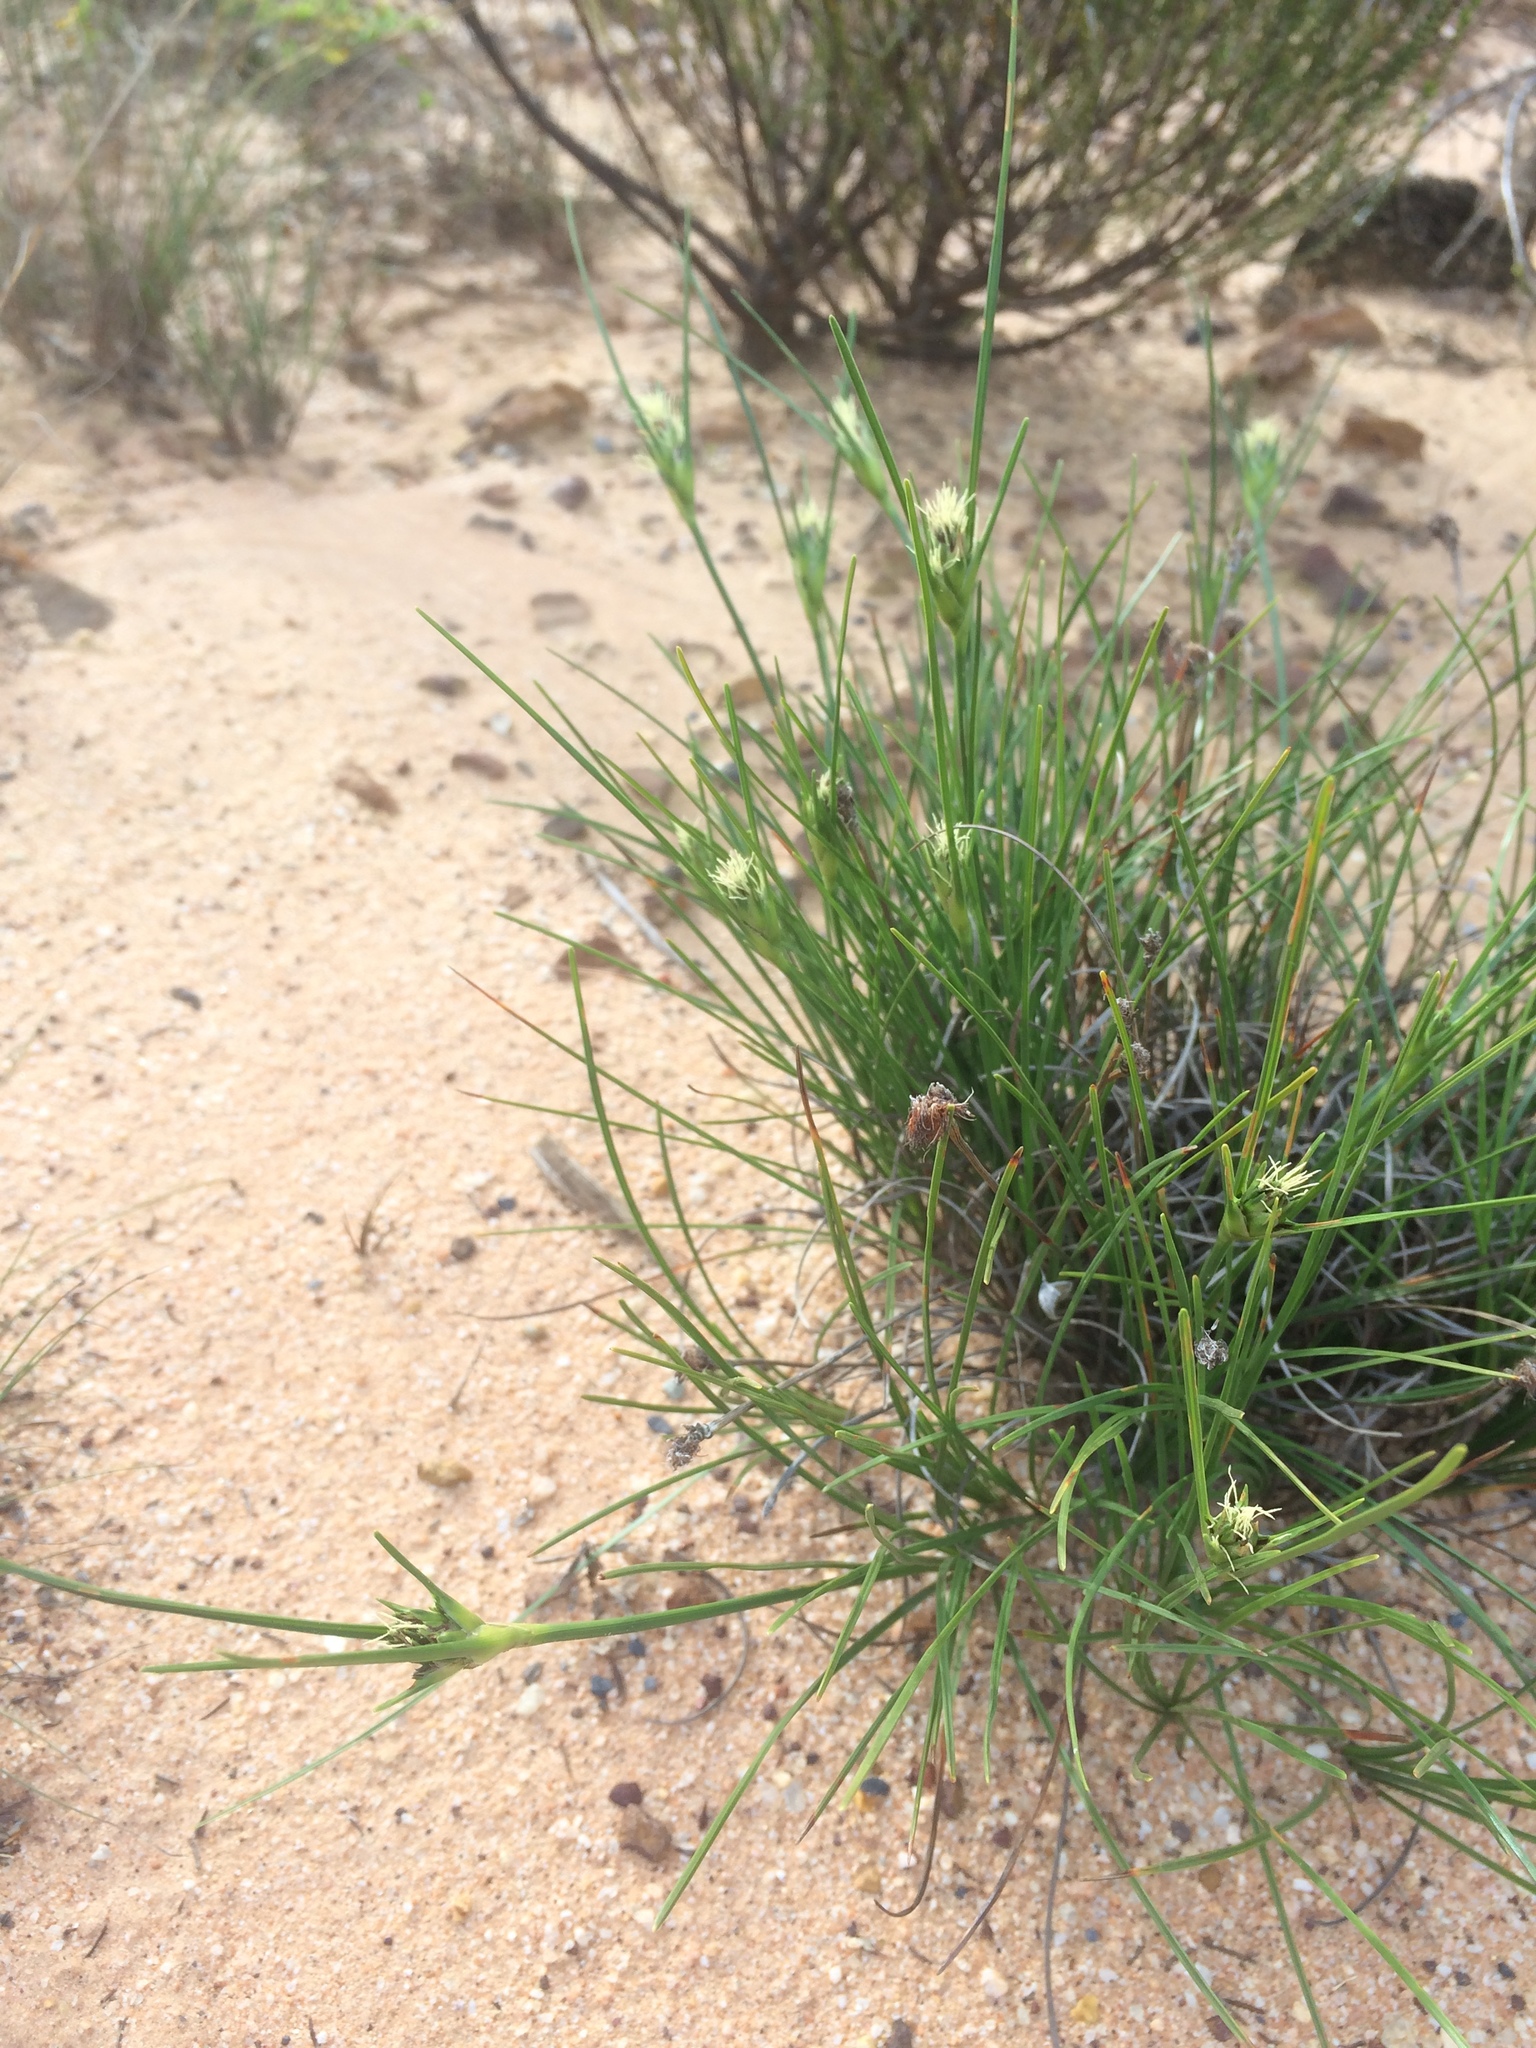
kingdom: Plantae
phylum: Tracheophyta
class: Liliopsida
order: Poales
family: Cyperaceae
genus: Ficinia
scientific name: Ficinia anceps
